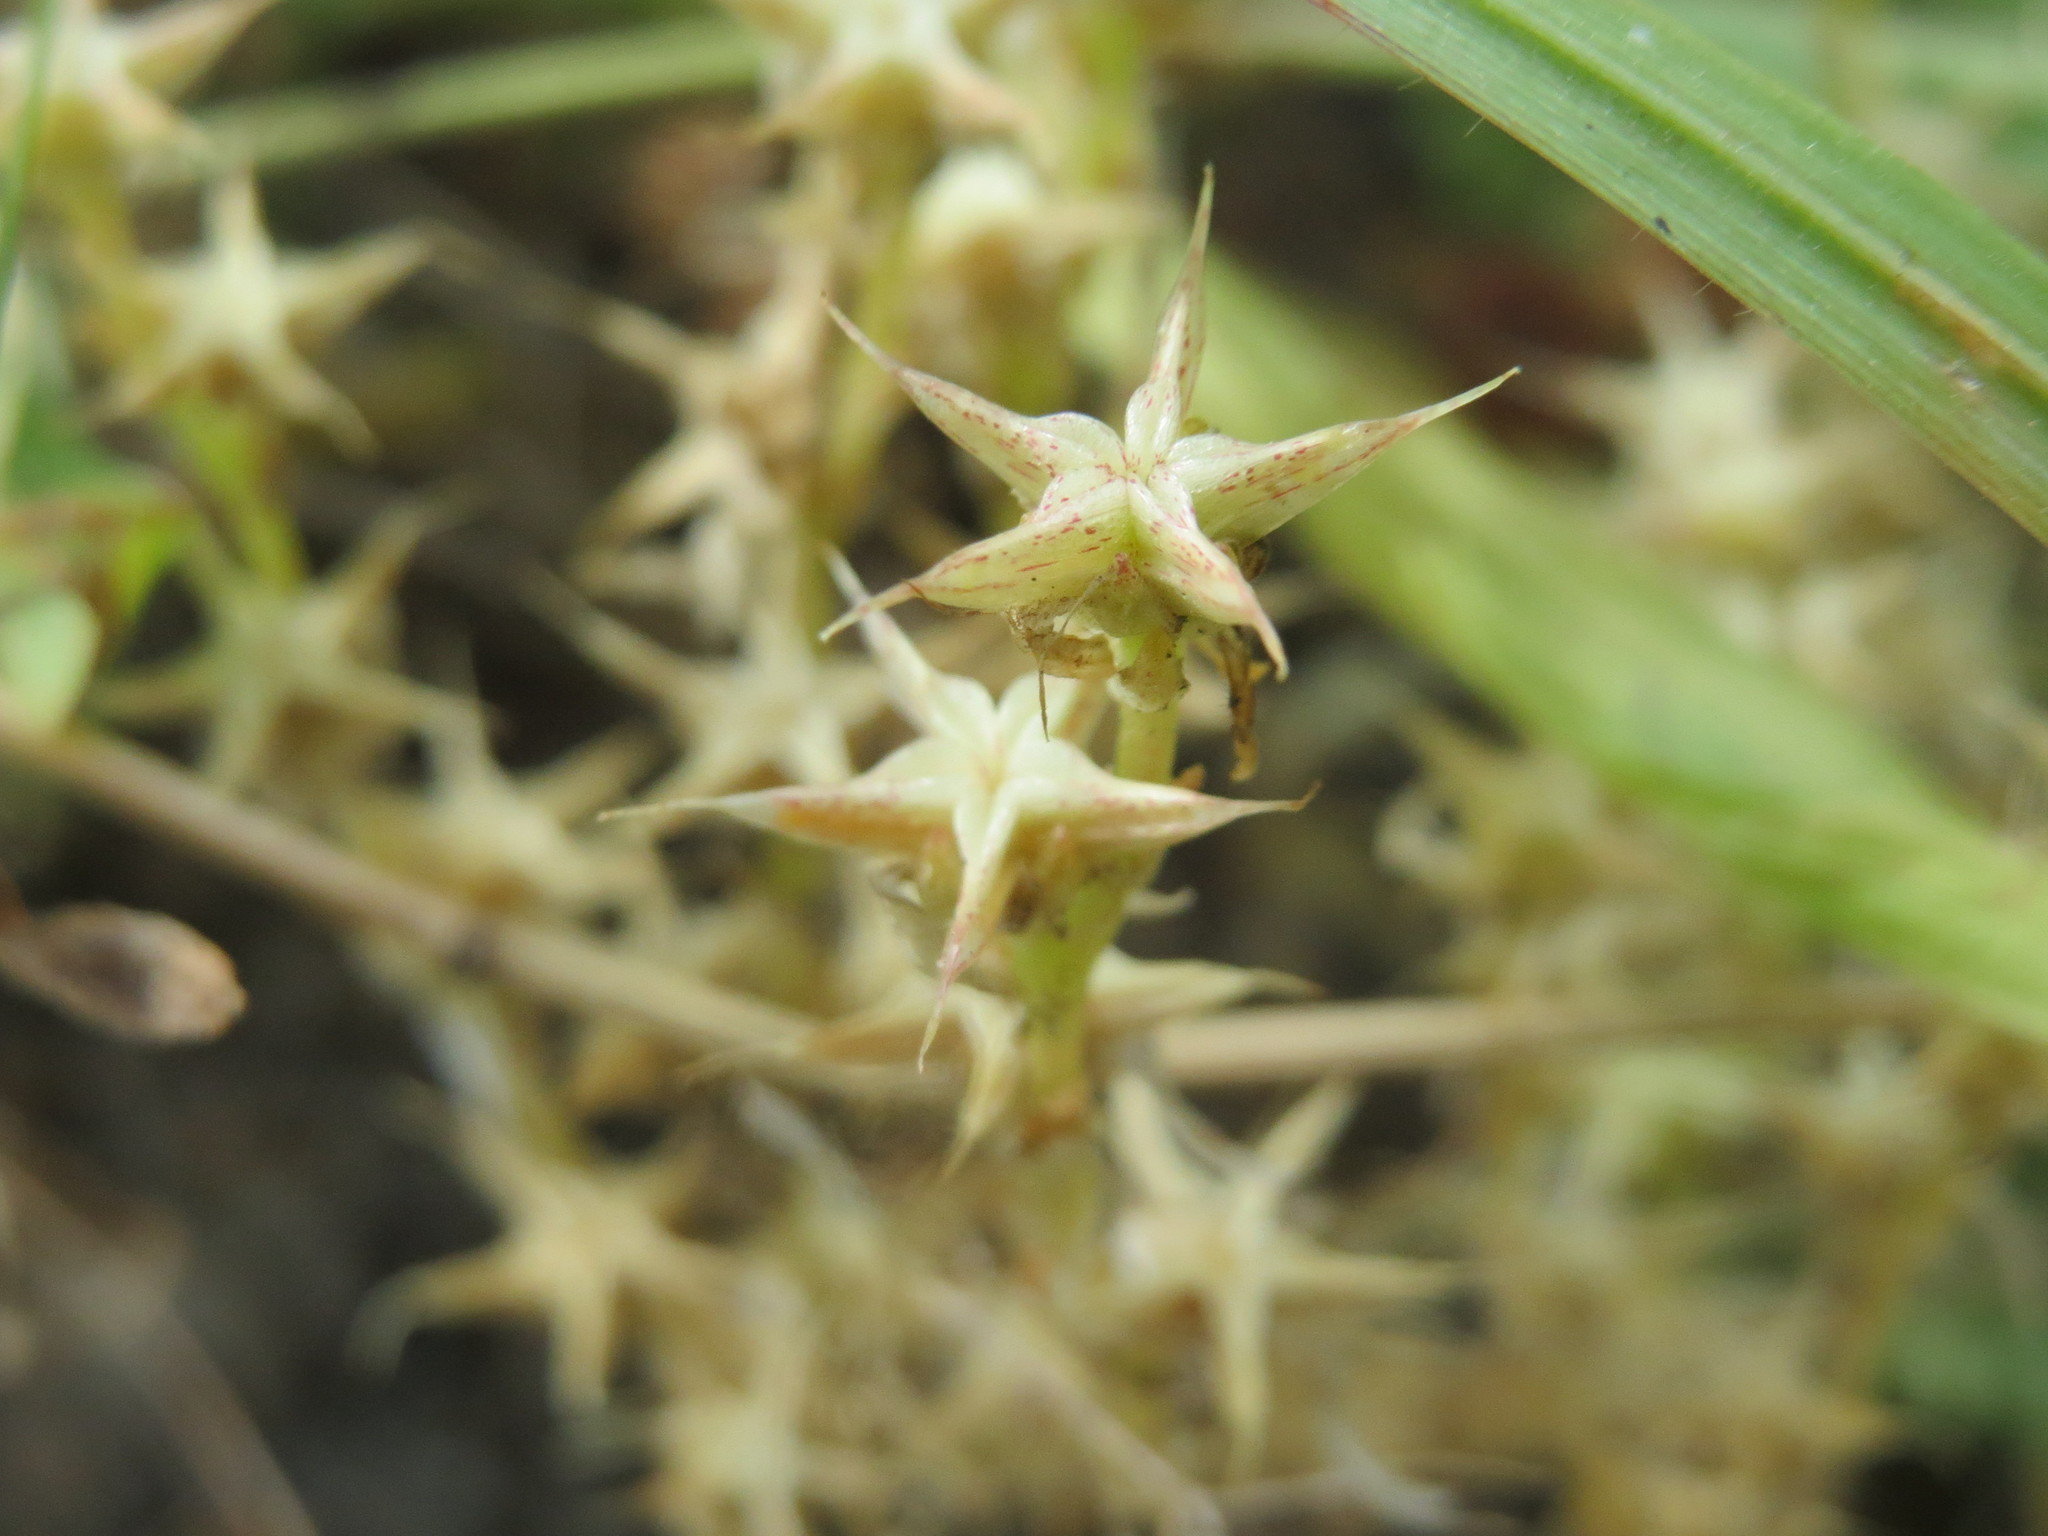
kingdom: Plantae
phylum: Tracheophyta
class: Magnoliopsida
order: Saxifragales
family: Crassulaceae
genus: Sedum
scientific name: Sedum acre
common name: Biting stonecrop
